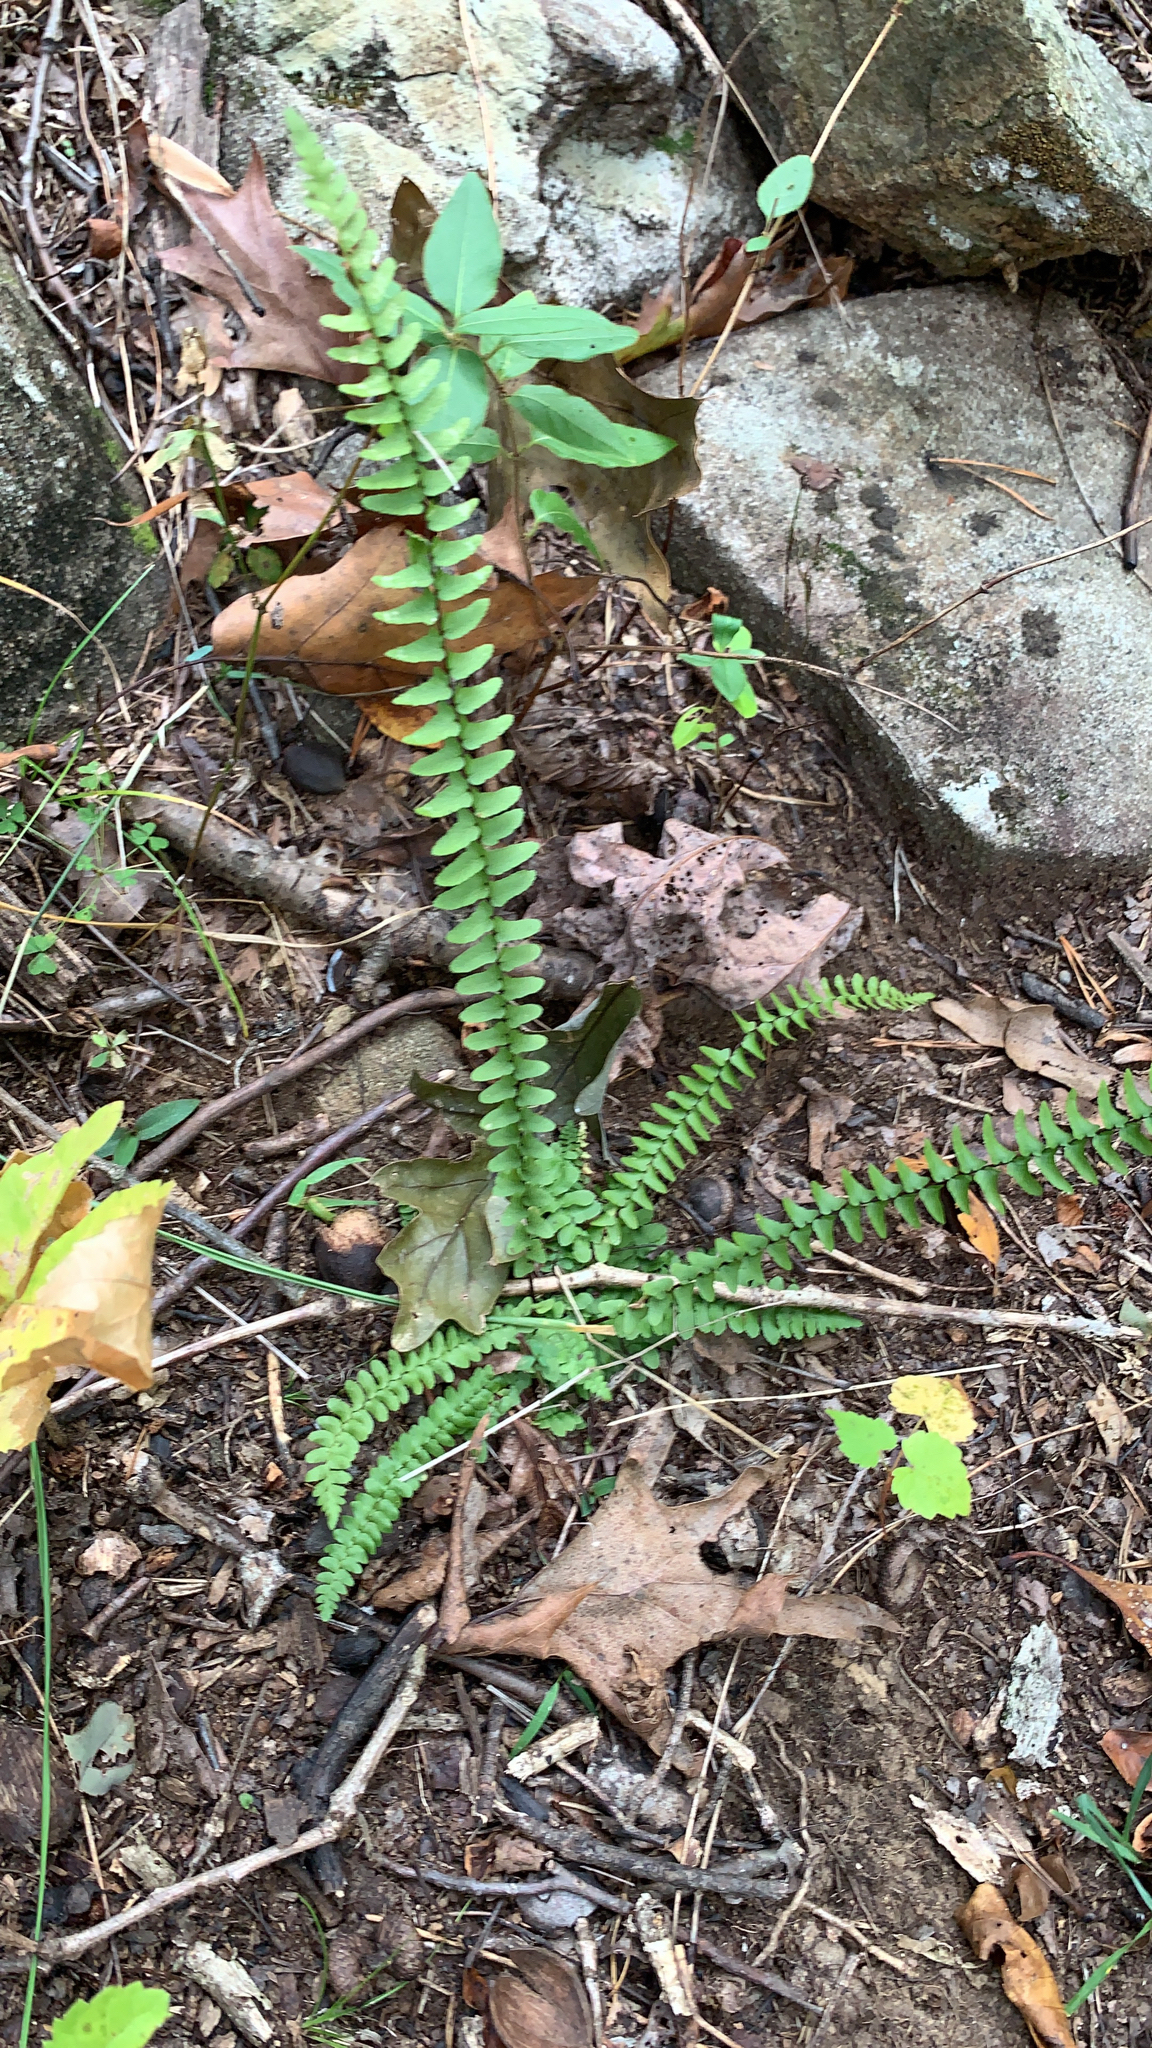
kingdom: Plantae
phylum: Tracheophyta
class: Polypodiopsida
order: Polypodiales
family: Aspleniaceae
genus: Asplenium
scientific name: Asplenium platyneuron
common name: Ebony spleenwort
